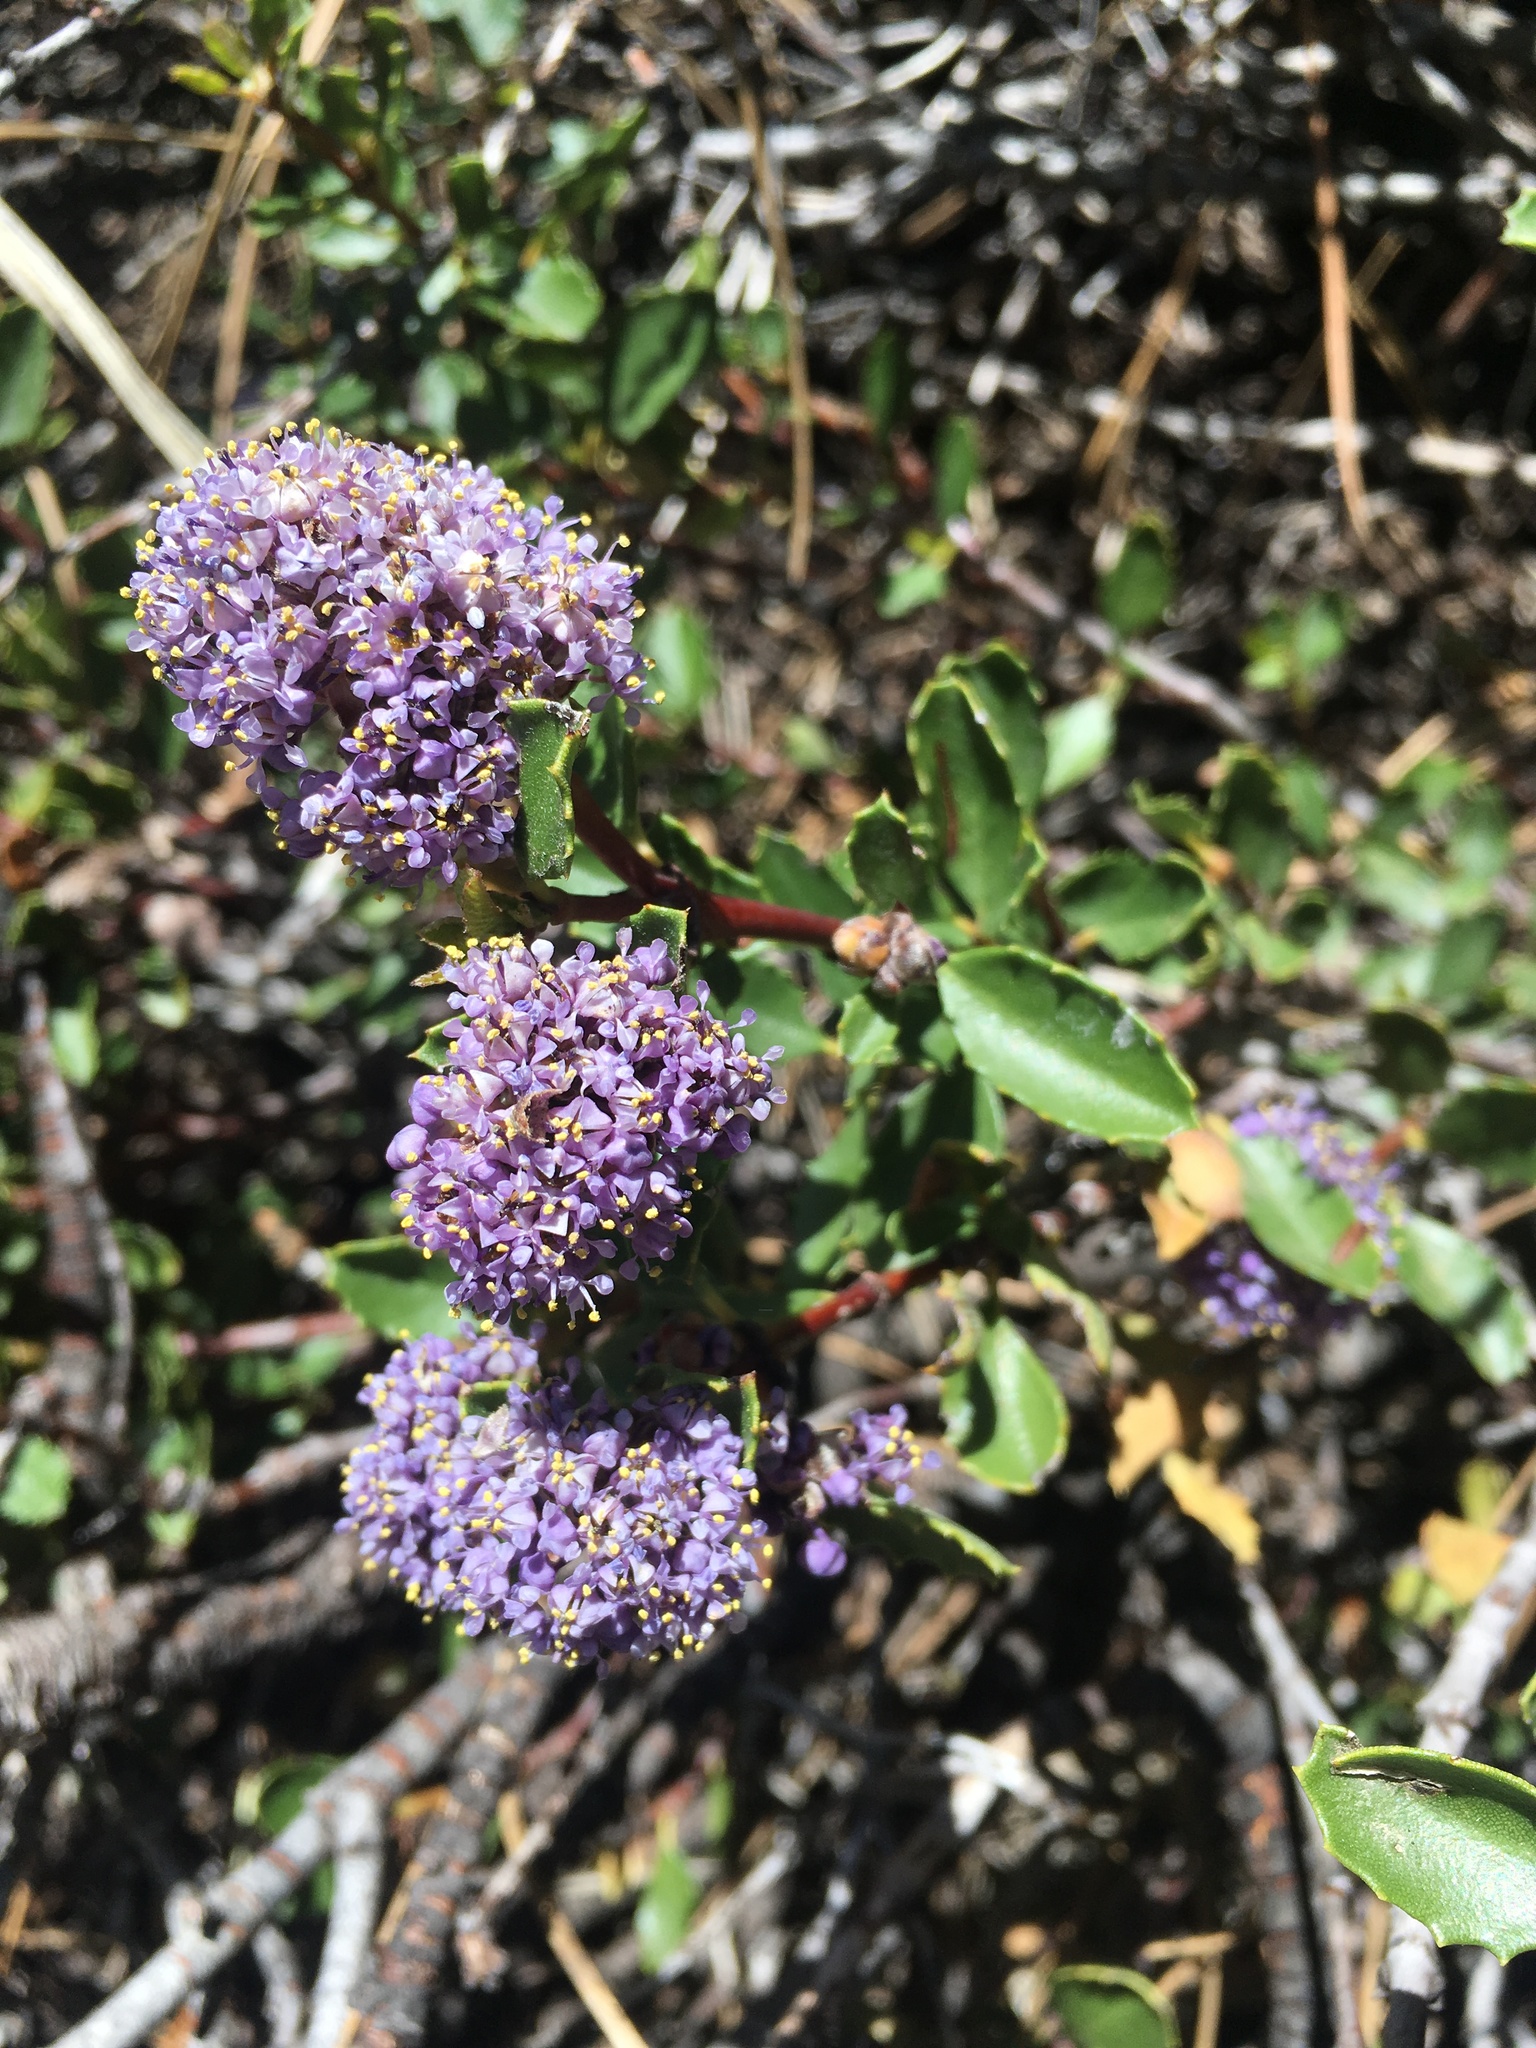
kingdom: Plantae
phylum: Tracheophyta
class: Magnoliopsida
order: Rosales
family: Rhamnaceae
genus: Ceanothus
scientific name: Ceanothus pinetorum
